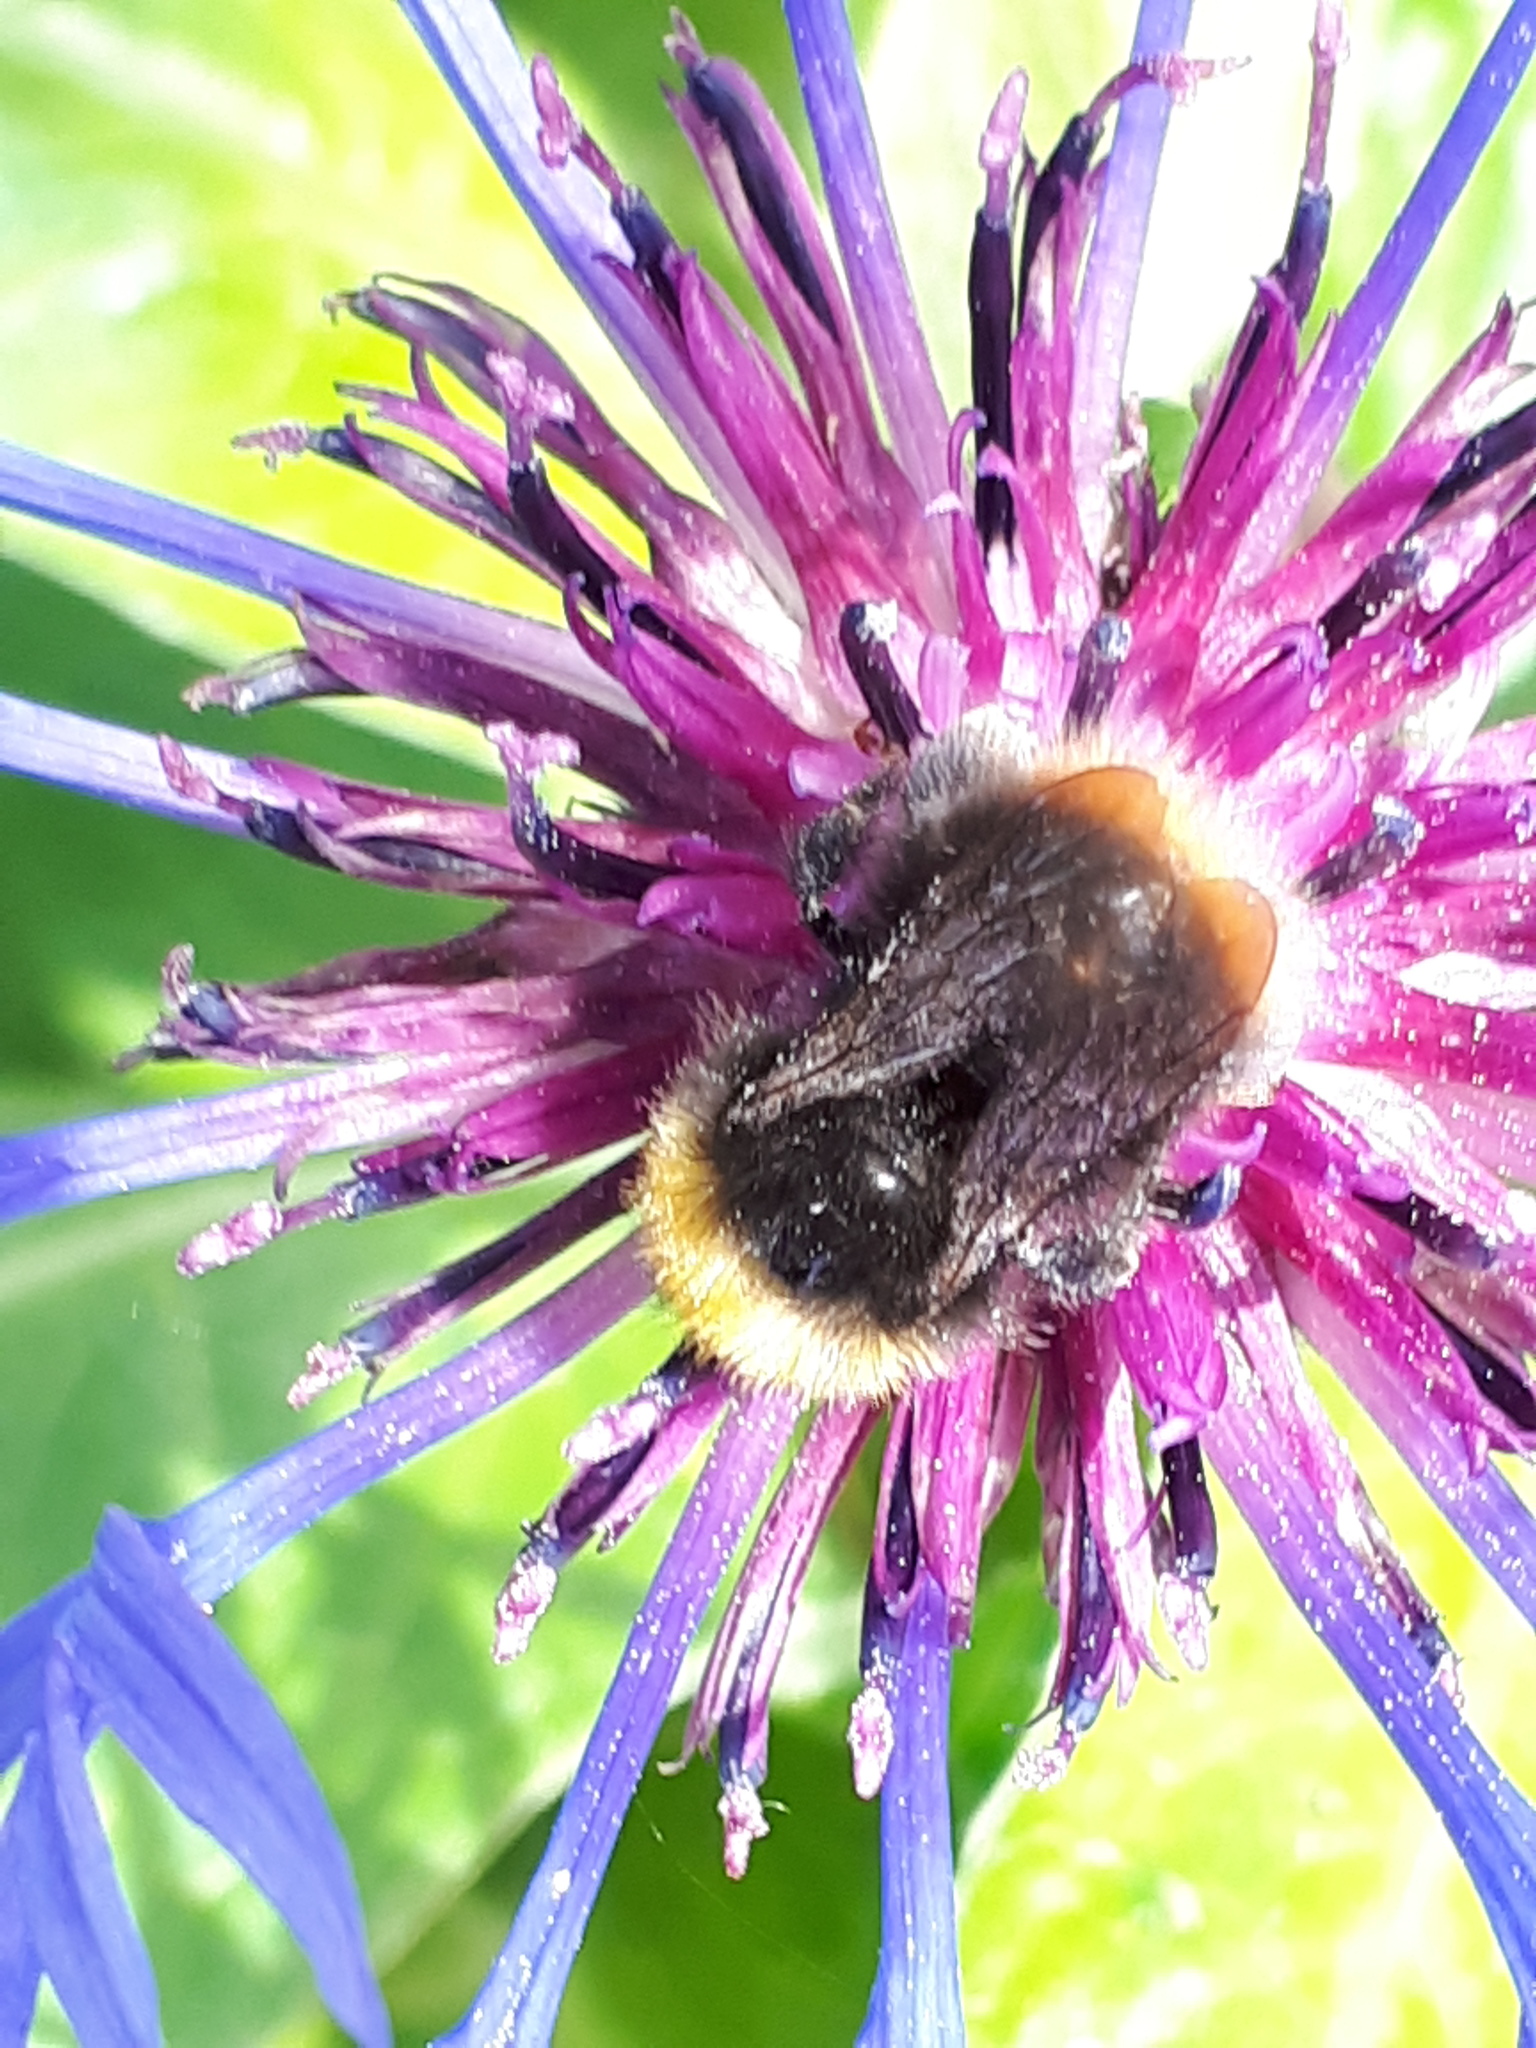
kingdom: Animalia
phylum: Arthropoda
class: Insecta
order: Hymenoptera
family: Apidae
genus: Bombus
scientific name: Bombus pratorum
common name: Early humble-bee
